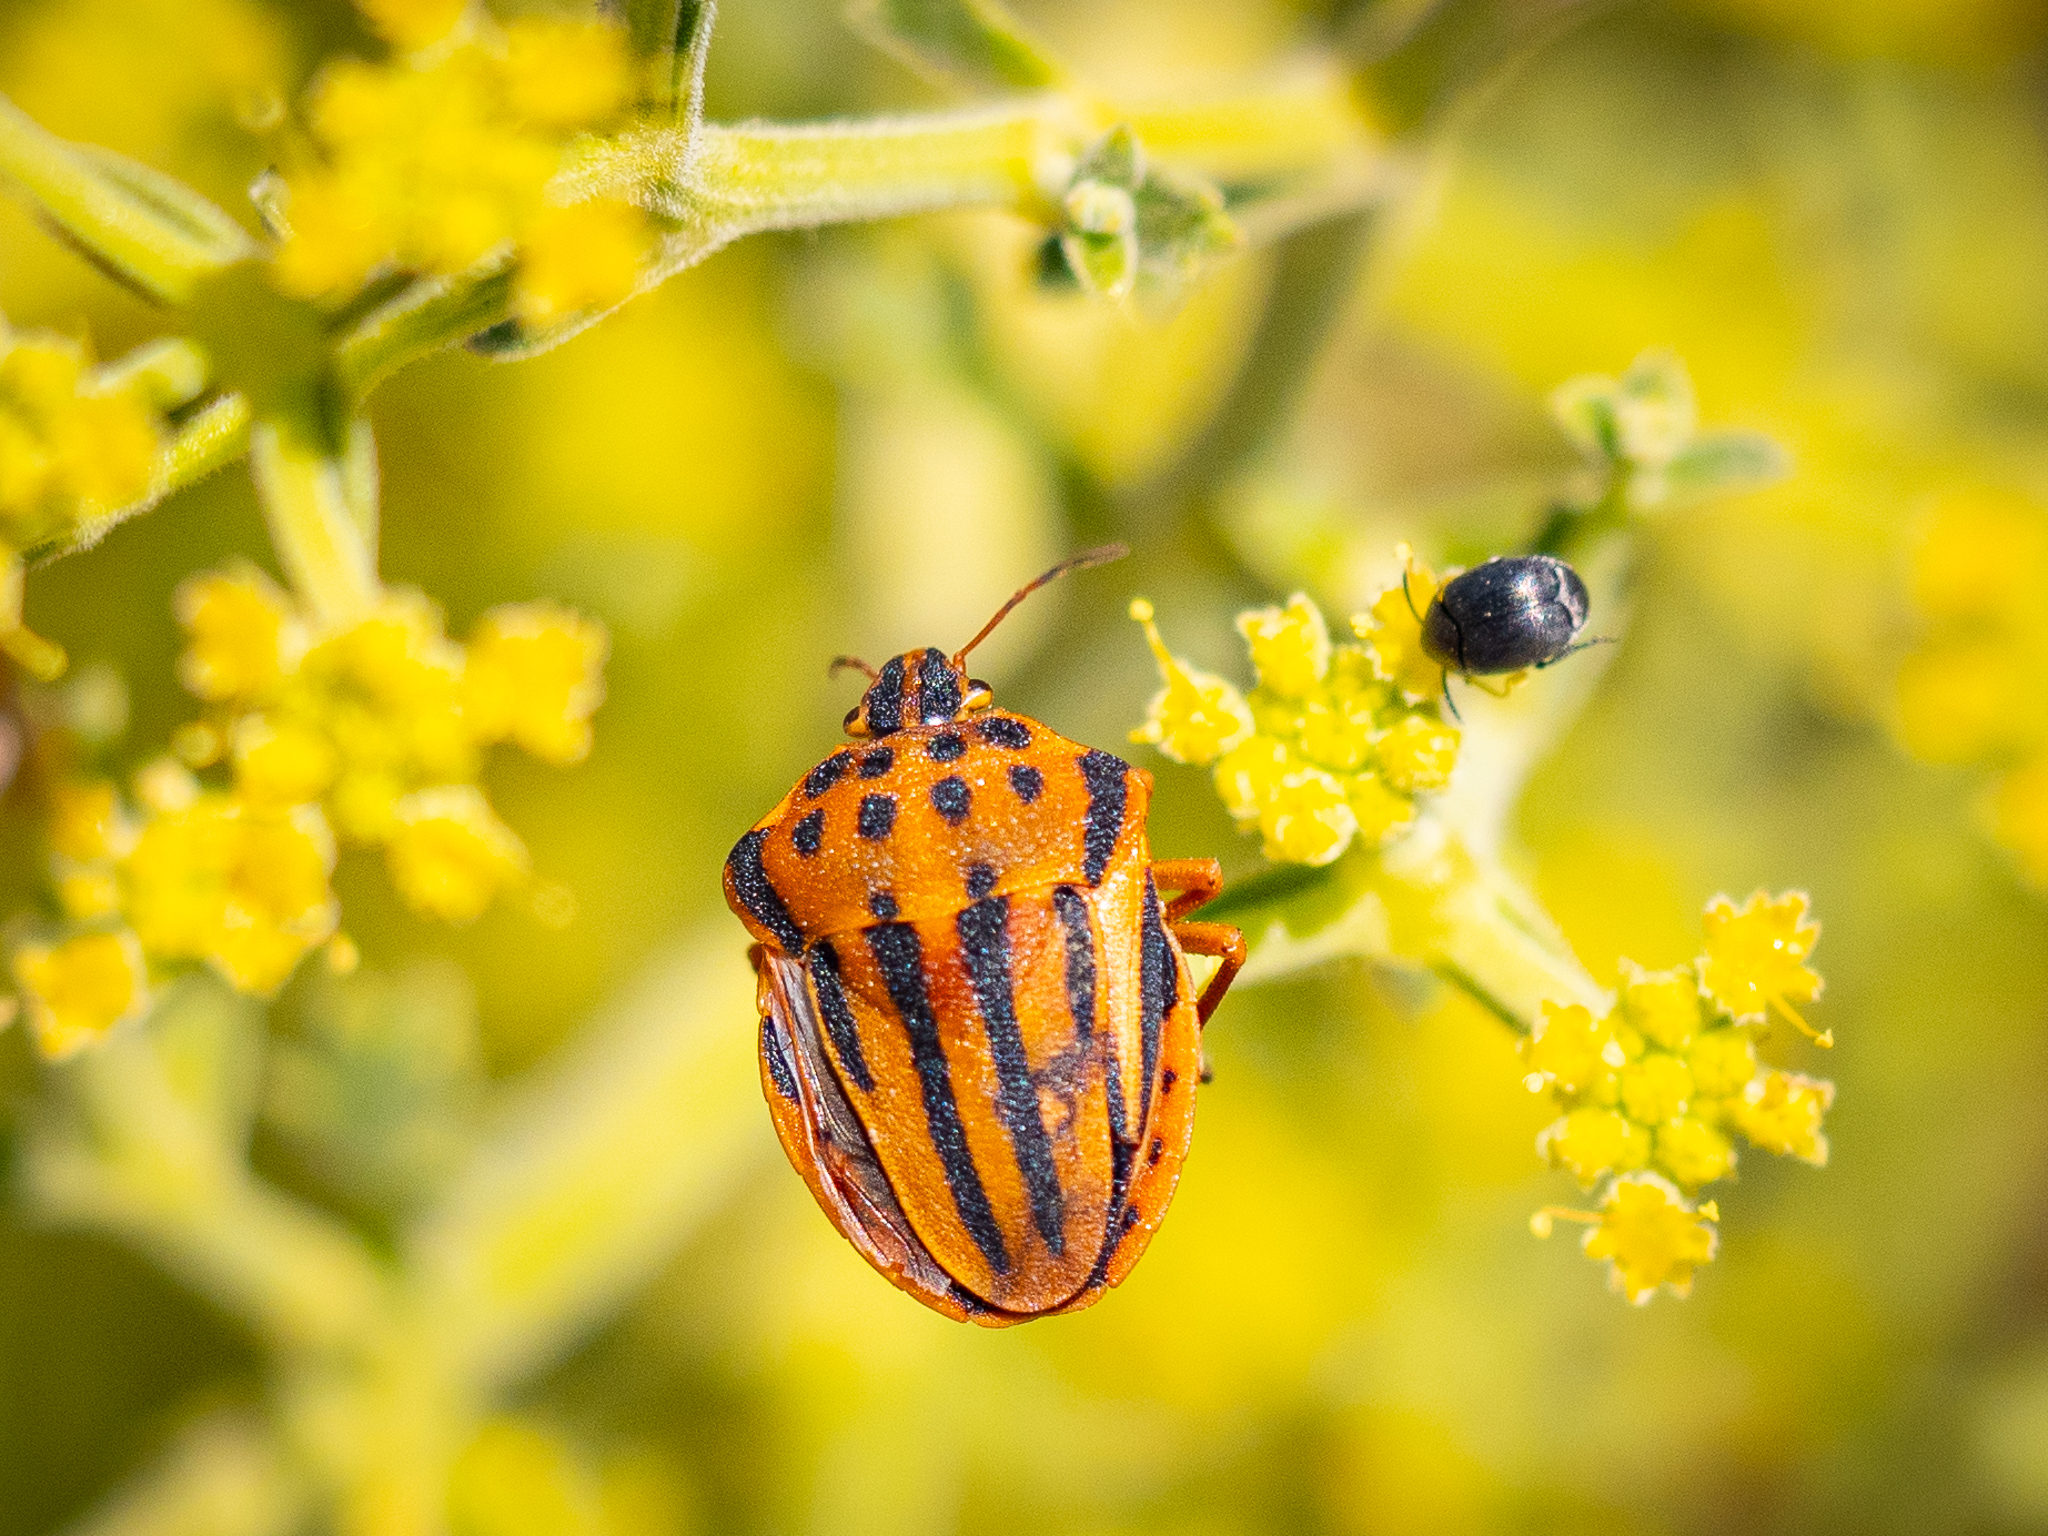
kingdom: Animalia
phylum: Arthropoda
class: Insecta
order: Hemiptera
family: Pentatomidae
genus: Graphosoma
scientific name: Graphosoma semipunctatum
